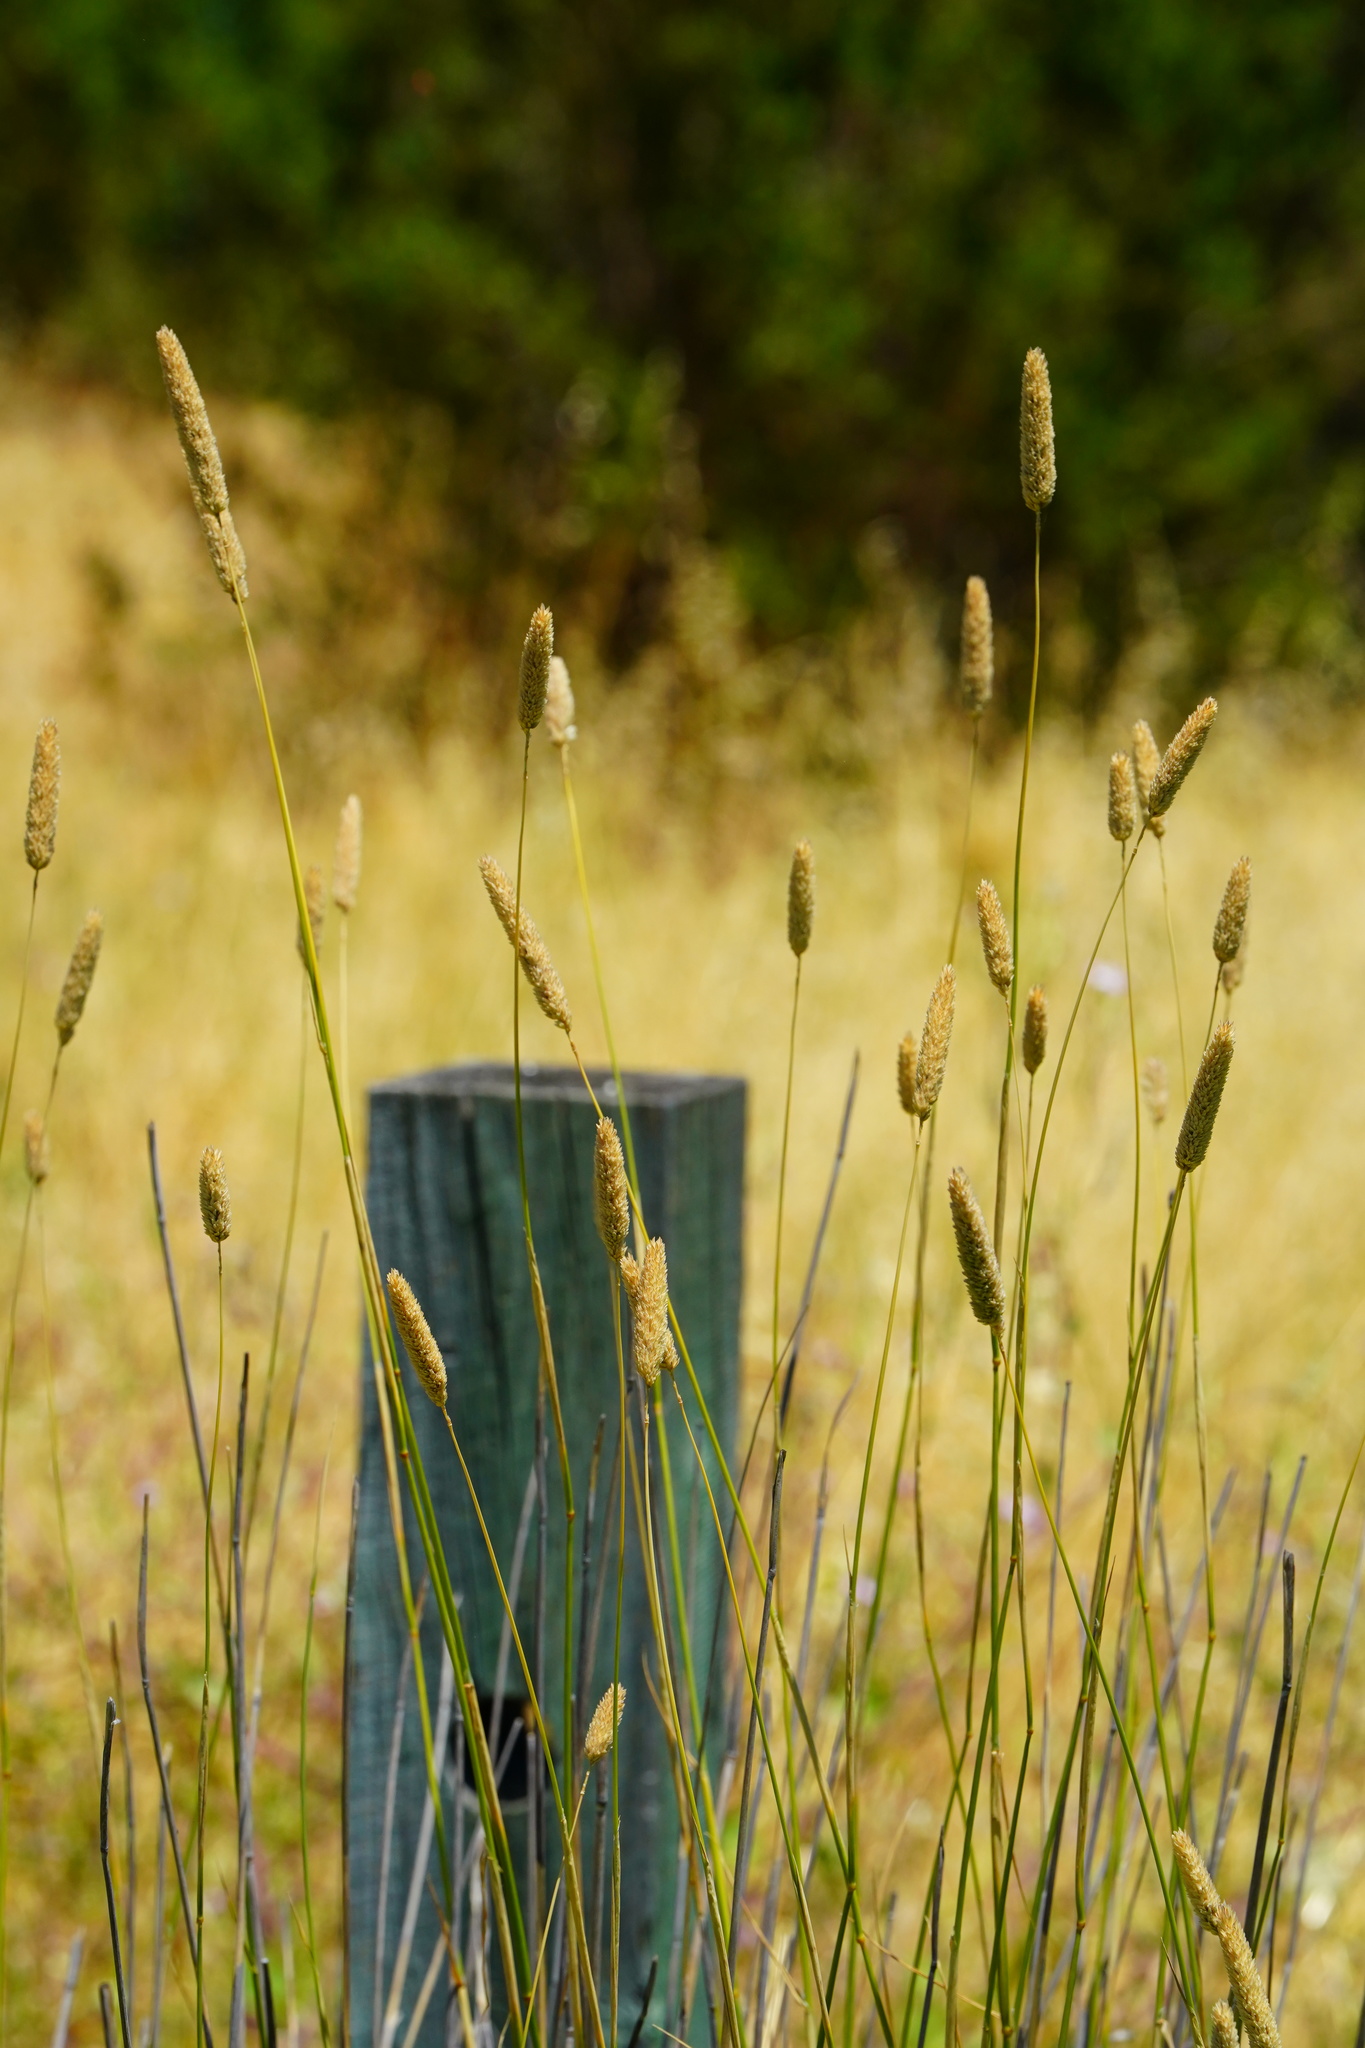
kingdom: Plantae
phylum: Tracheophyta
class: Liliopsida
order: Poales
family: Poaceae
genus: Phalaris
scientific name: Phalaris aquatica
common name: Bulbous canary-grass
